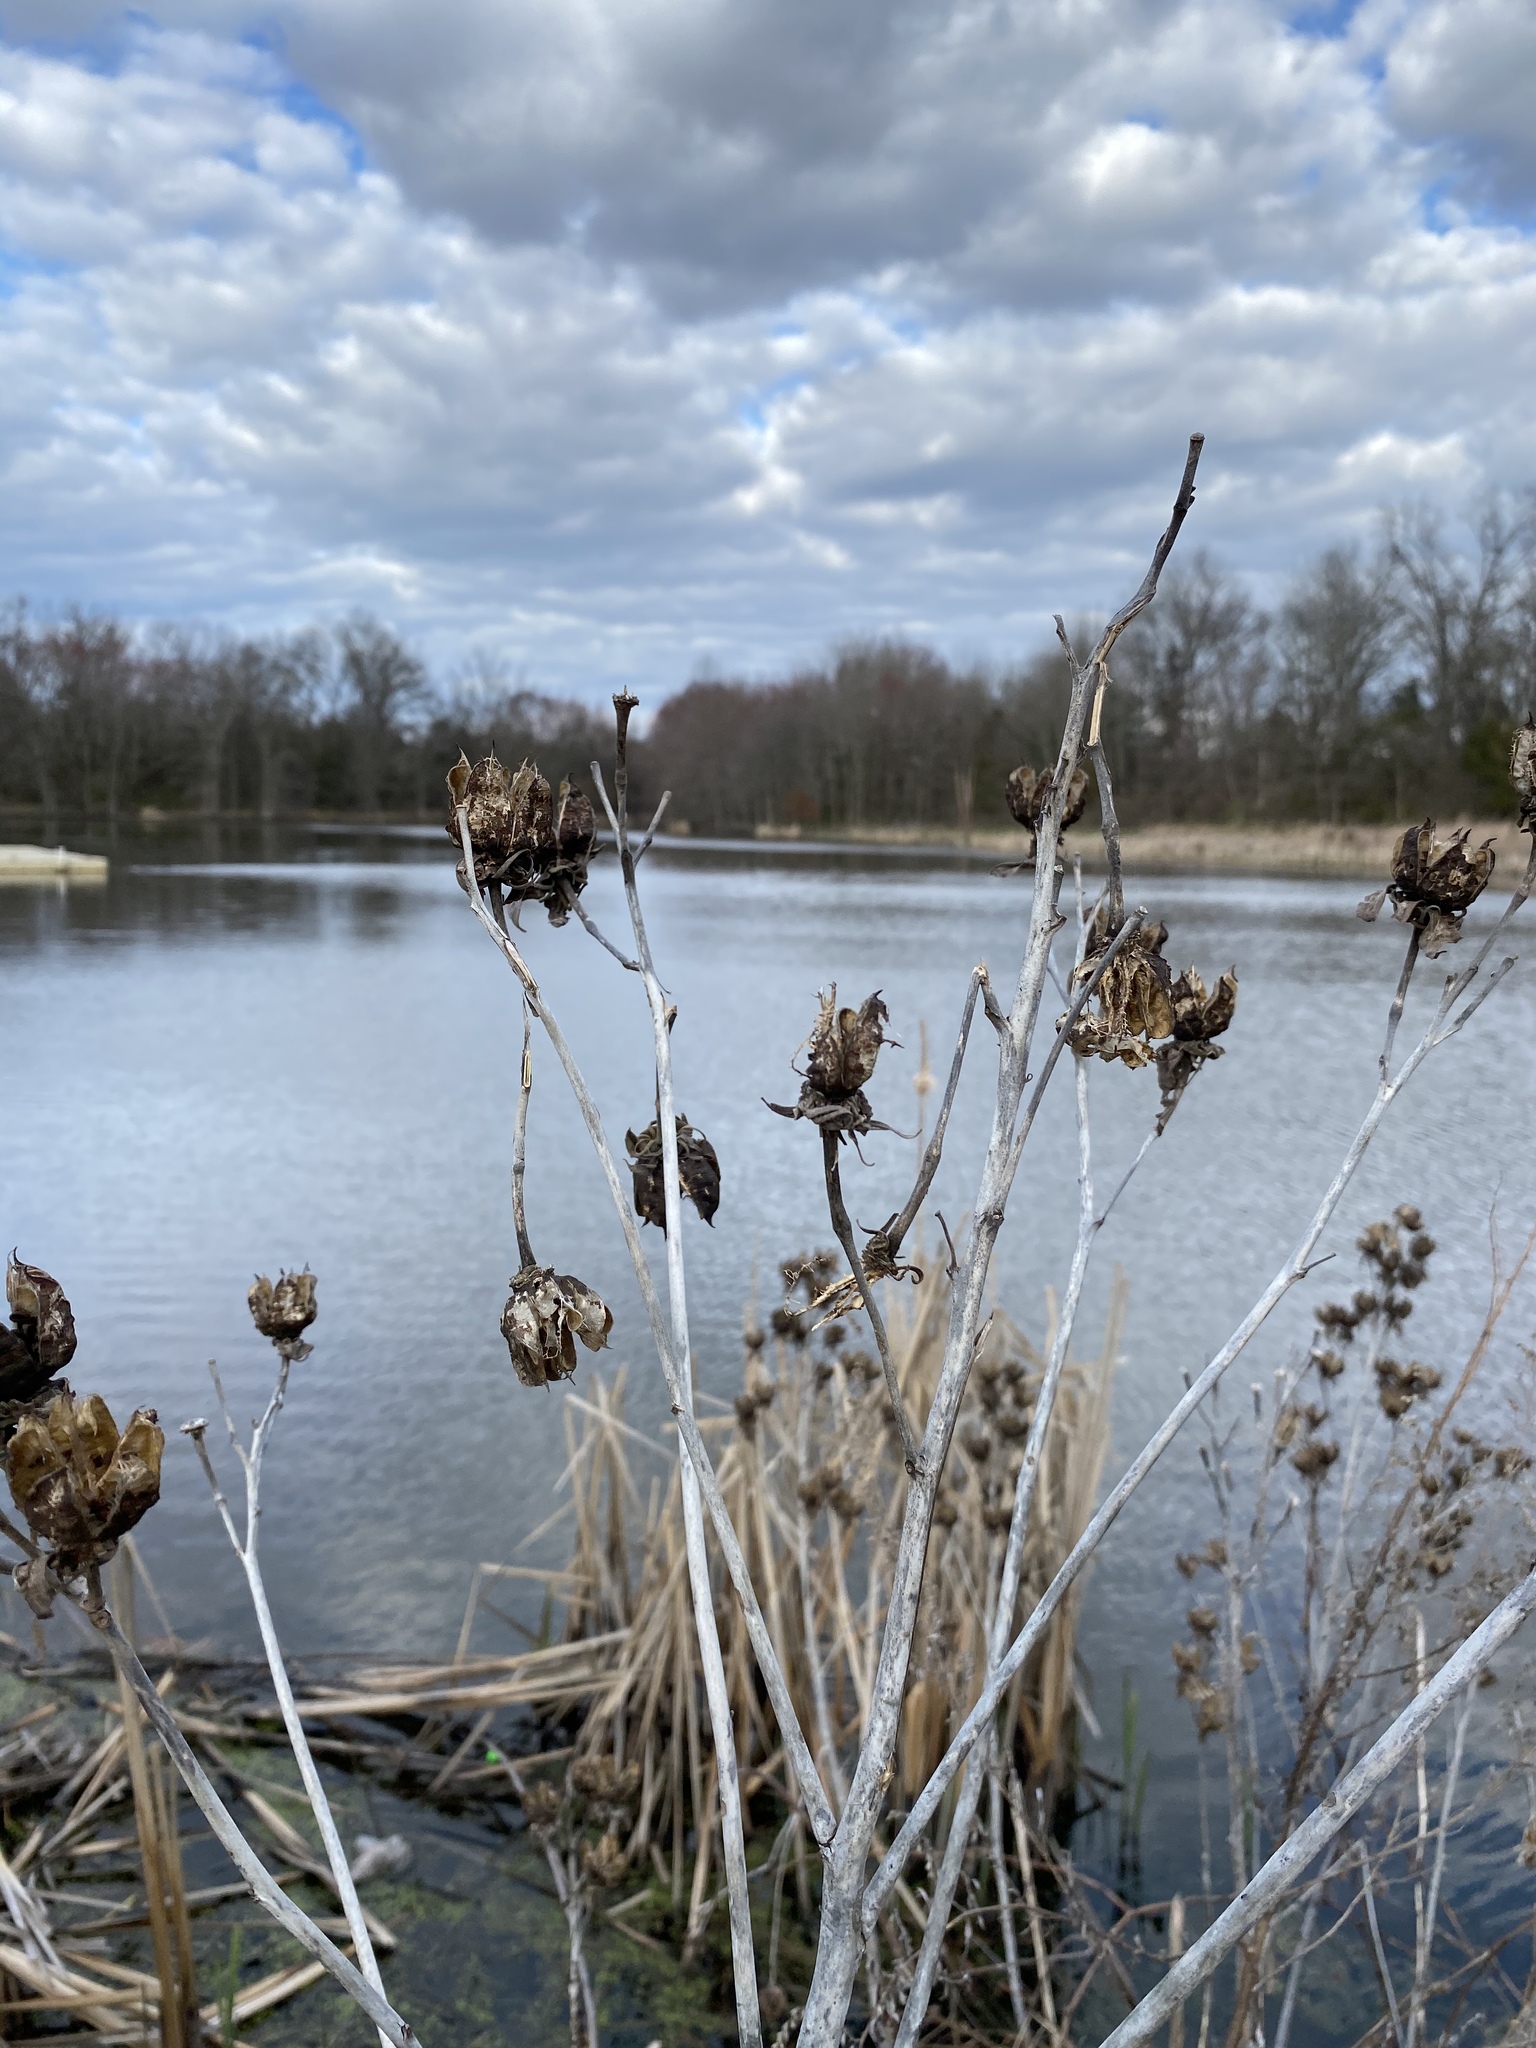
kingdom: Plantae
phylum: Tracheophyta
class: Magnoliopsida
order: Malvales
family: Malvaceae
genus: Hibiscus
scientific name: Hibiscus moscheutos
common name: Common rose-mallow
